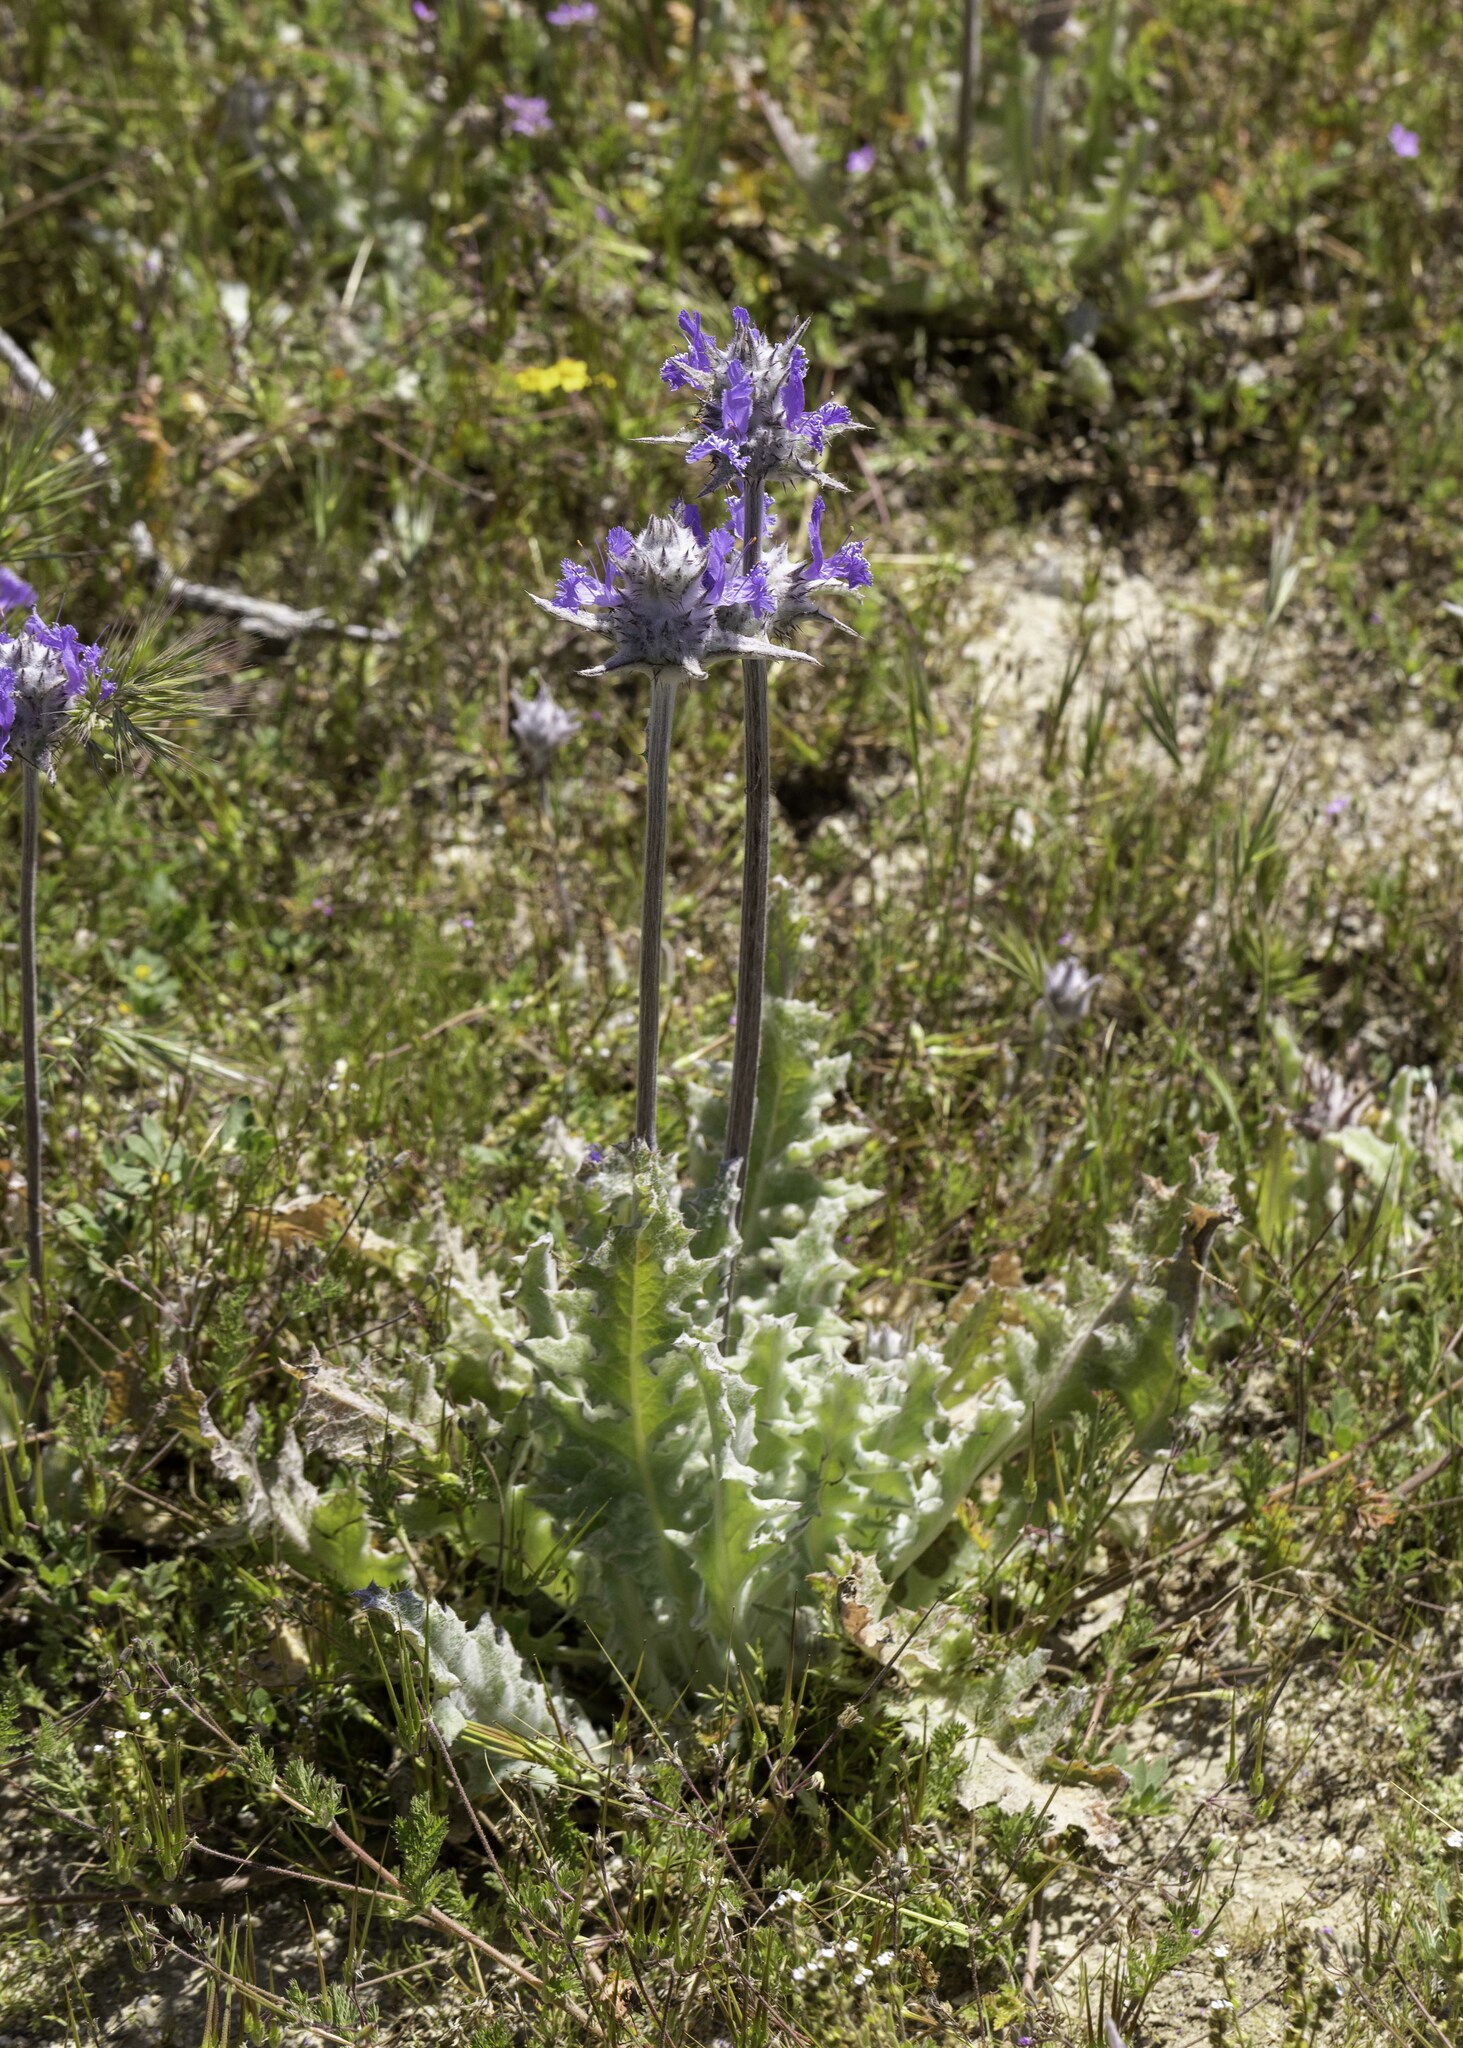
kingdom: Plantae
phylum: Tracheophyta
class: Magnoliopsida
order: Lamiales
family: Lamiaceae
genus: Salvia
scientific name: Salvia carduacea
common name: Thistle sage
